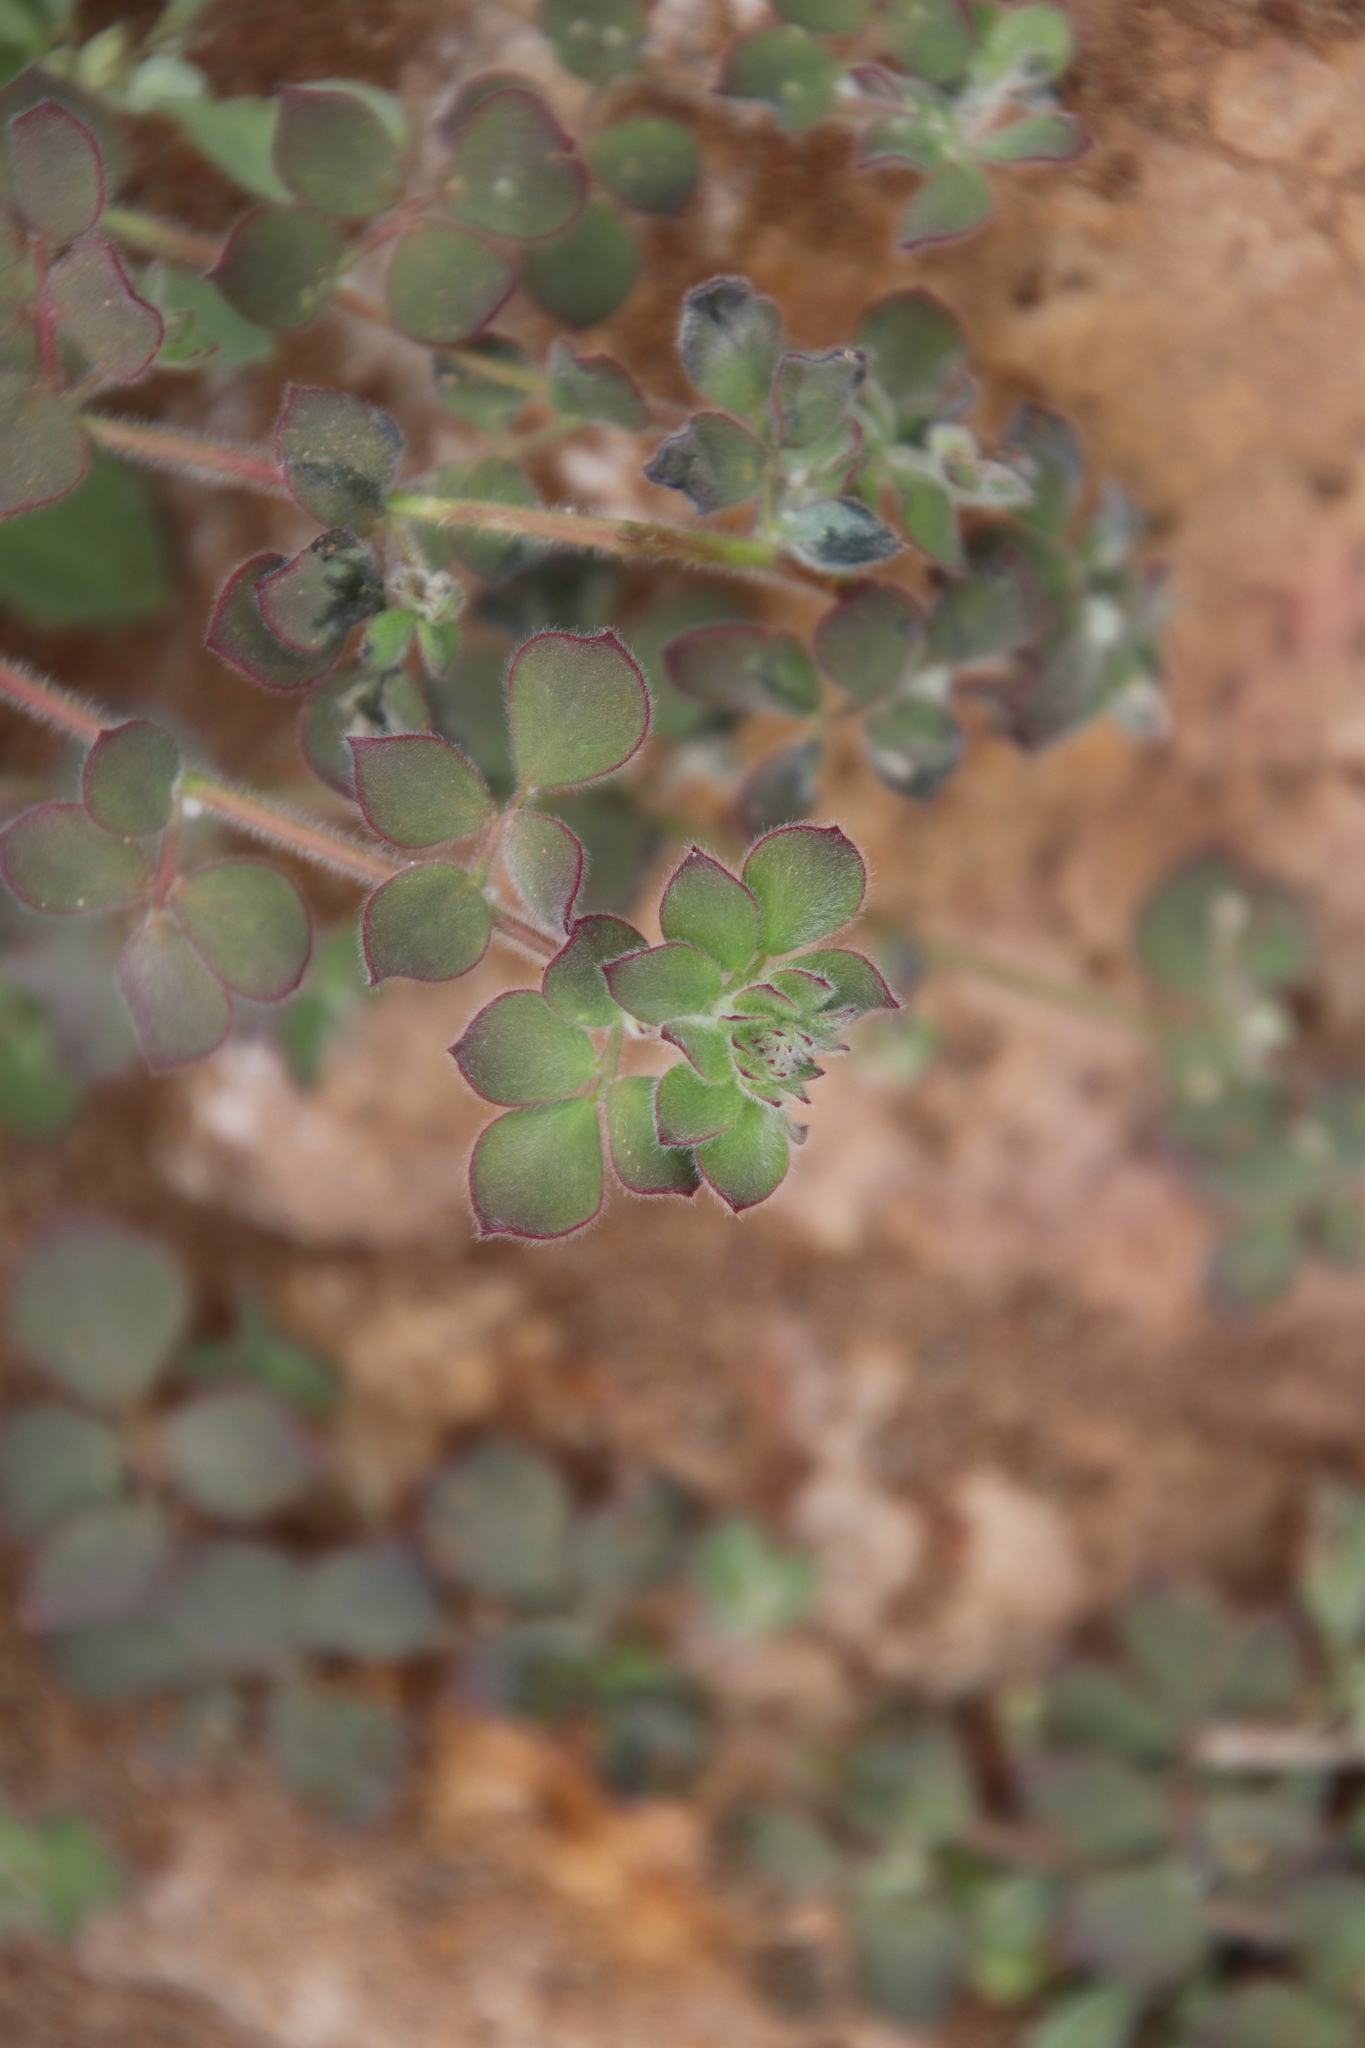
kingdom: Plantae
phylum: Tracheophyta
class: Magnoliopsida
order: Fabales
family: Fabaceae
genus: Acmispon
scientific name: Acmispon tomentosus
